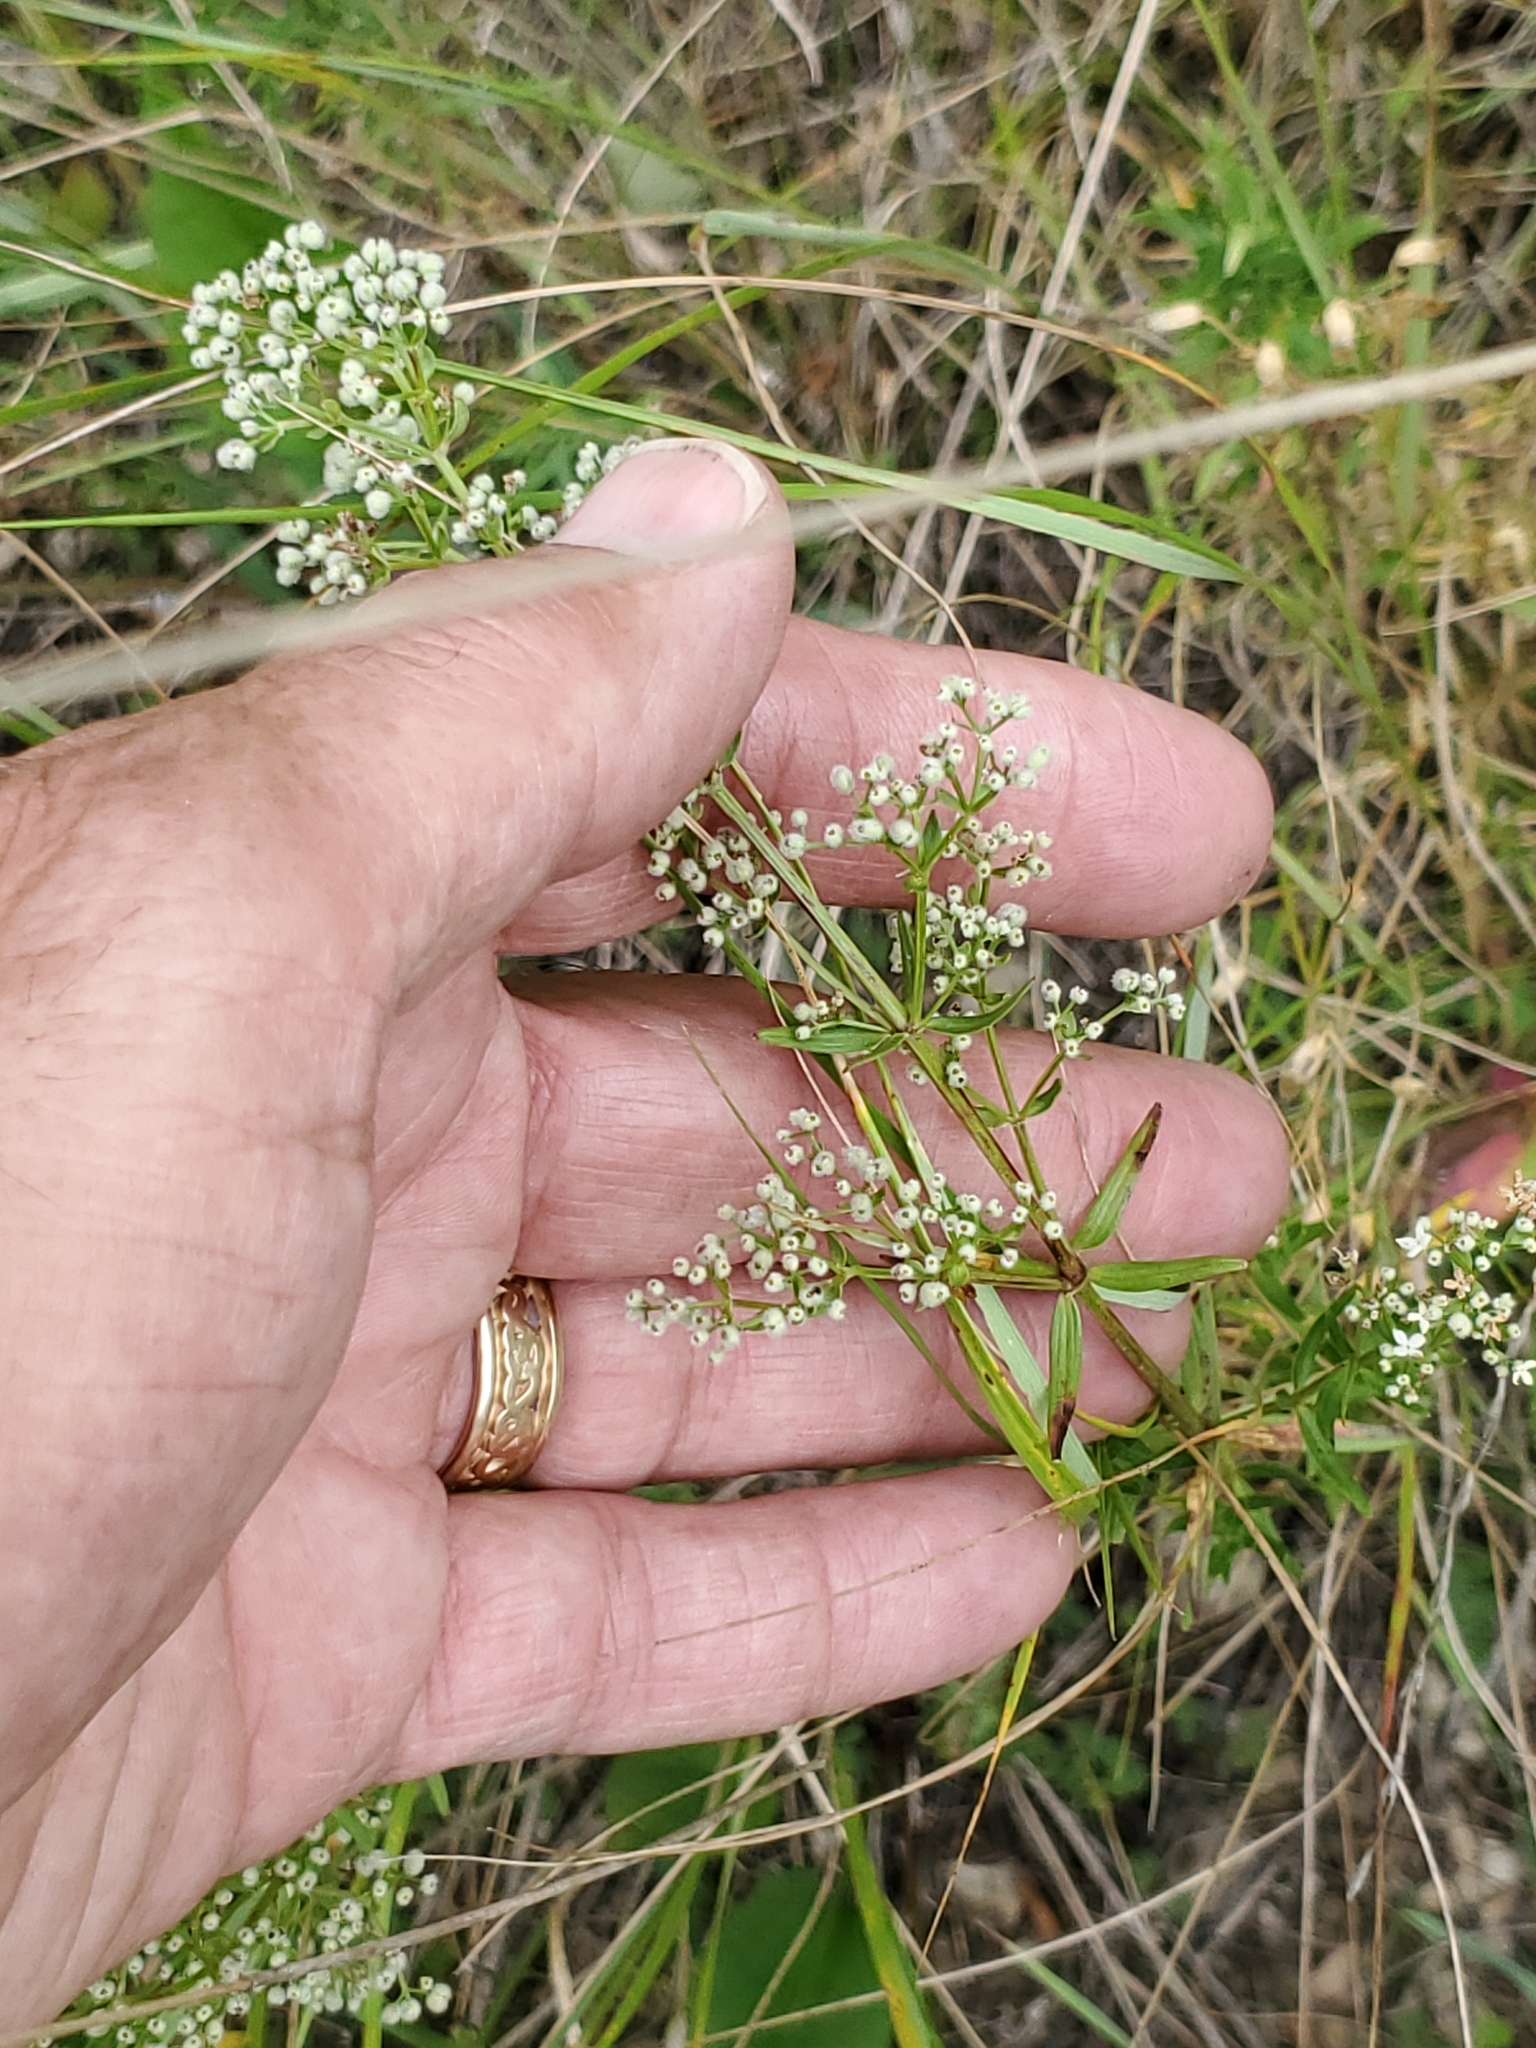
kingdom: Plantae
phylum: Tracheophyta
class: Magnoliopsida
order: Gentianales
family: Rubiaceae
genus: Galium
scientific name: Galium boreale
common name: Northern bedstraw
